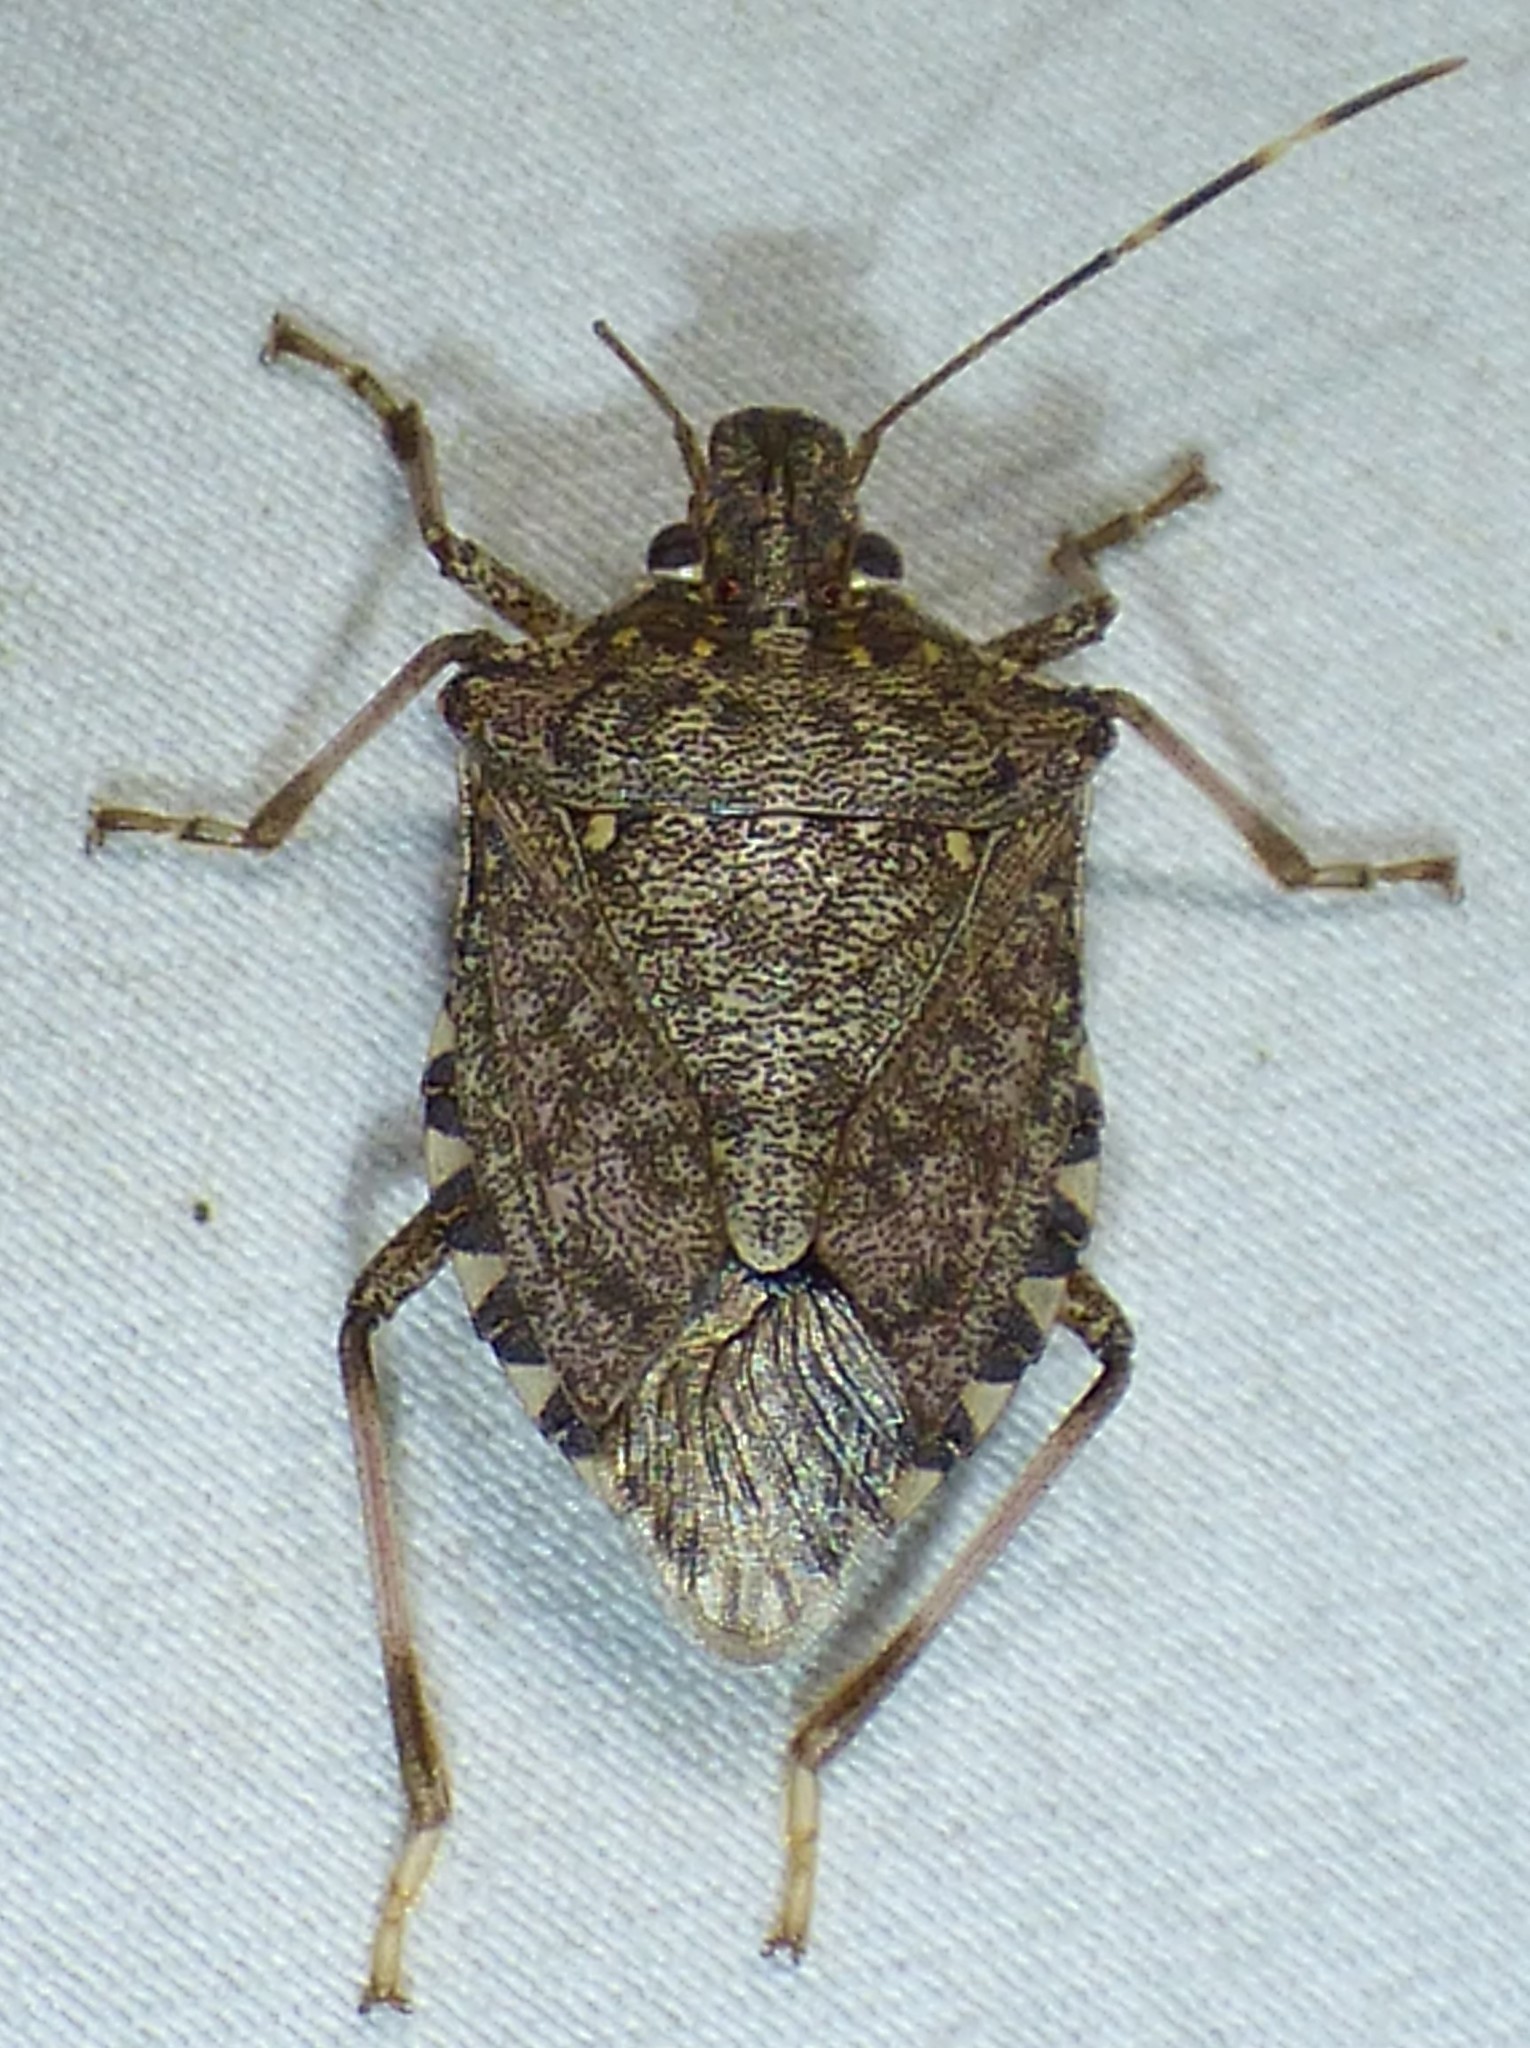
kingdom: Animalia
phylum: Arthropoda
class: Insecta
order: Hemiptera
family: Pentatomidae
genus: Halyomorpha
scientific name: Halyomorpha halys
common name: Brown marmorated stink bug
